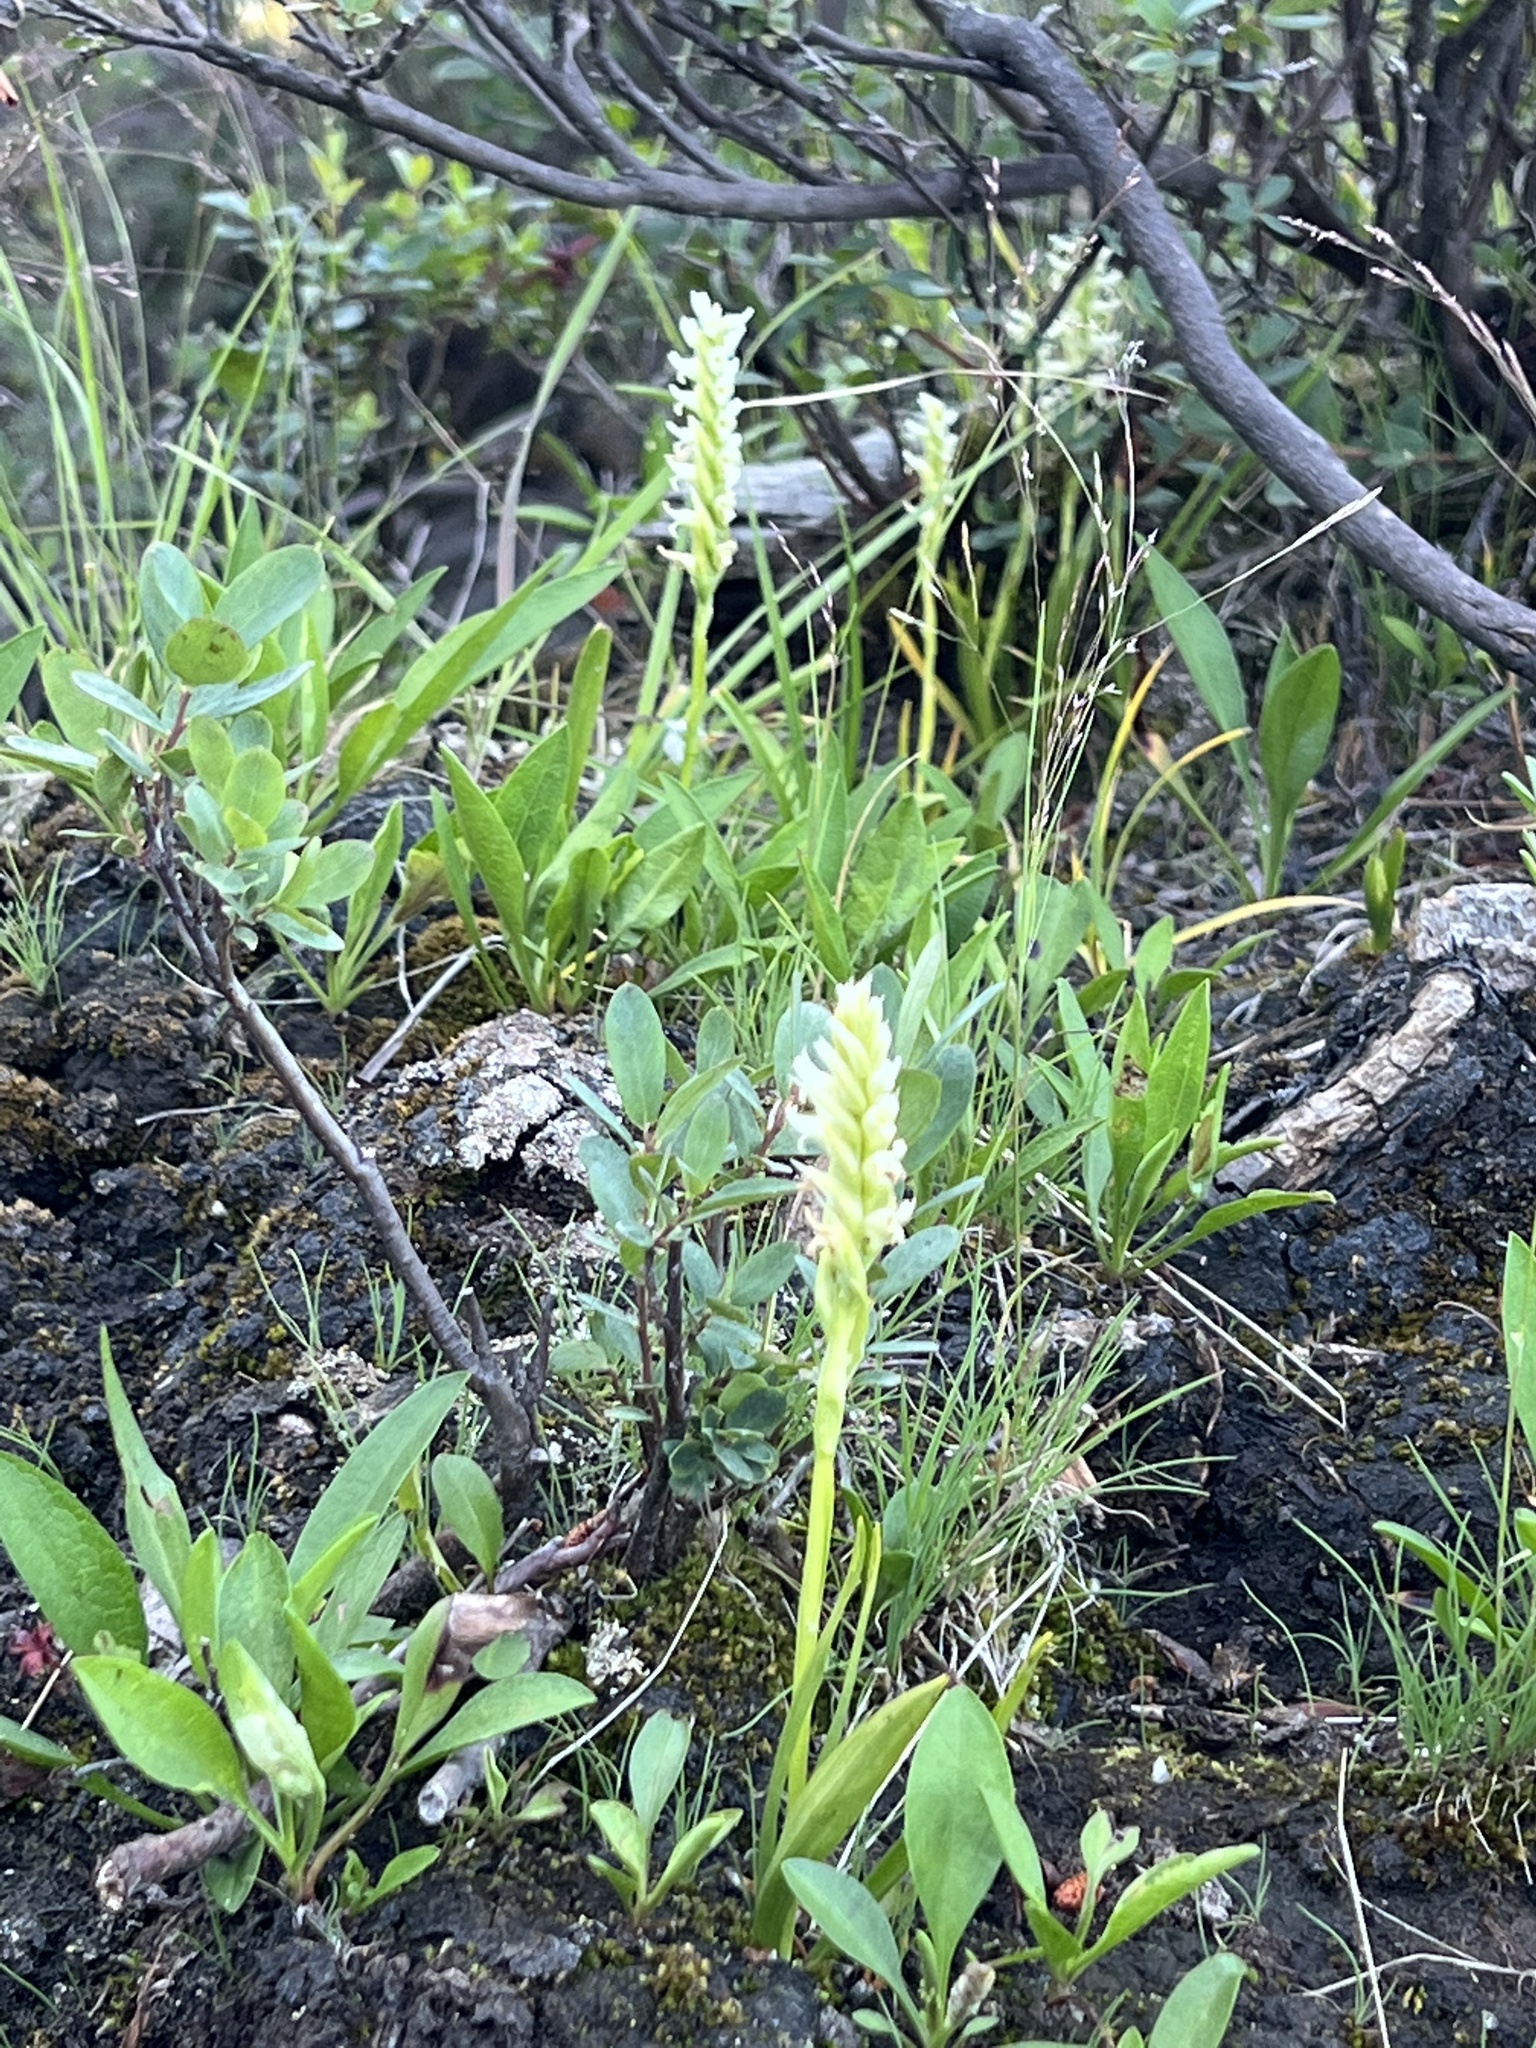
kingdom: Plantae
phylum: Tracheophyta
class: Liliopsida
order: Asparagales
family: Orchidaceae
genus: Spiranthes
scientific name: Spiranthes romanzoffiana
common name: Irish lady's-tresses
